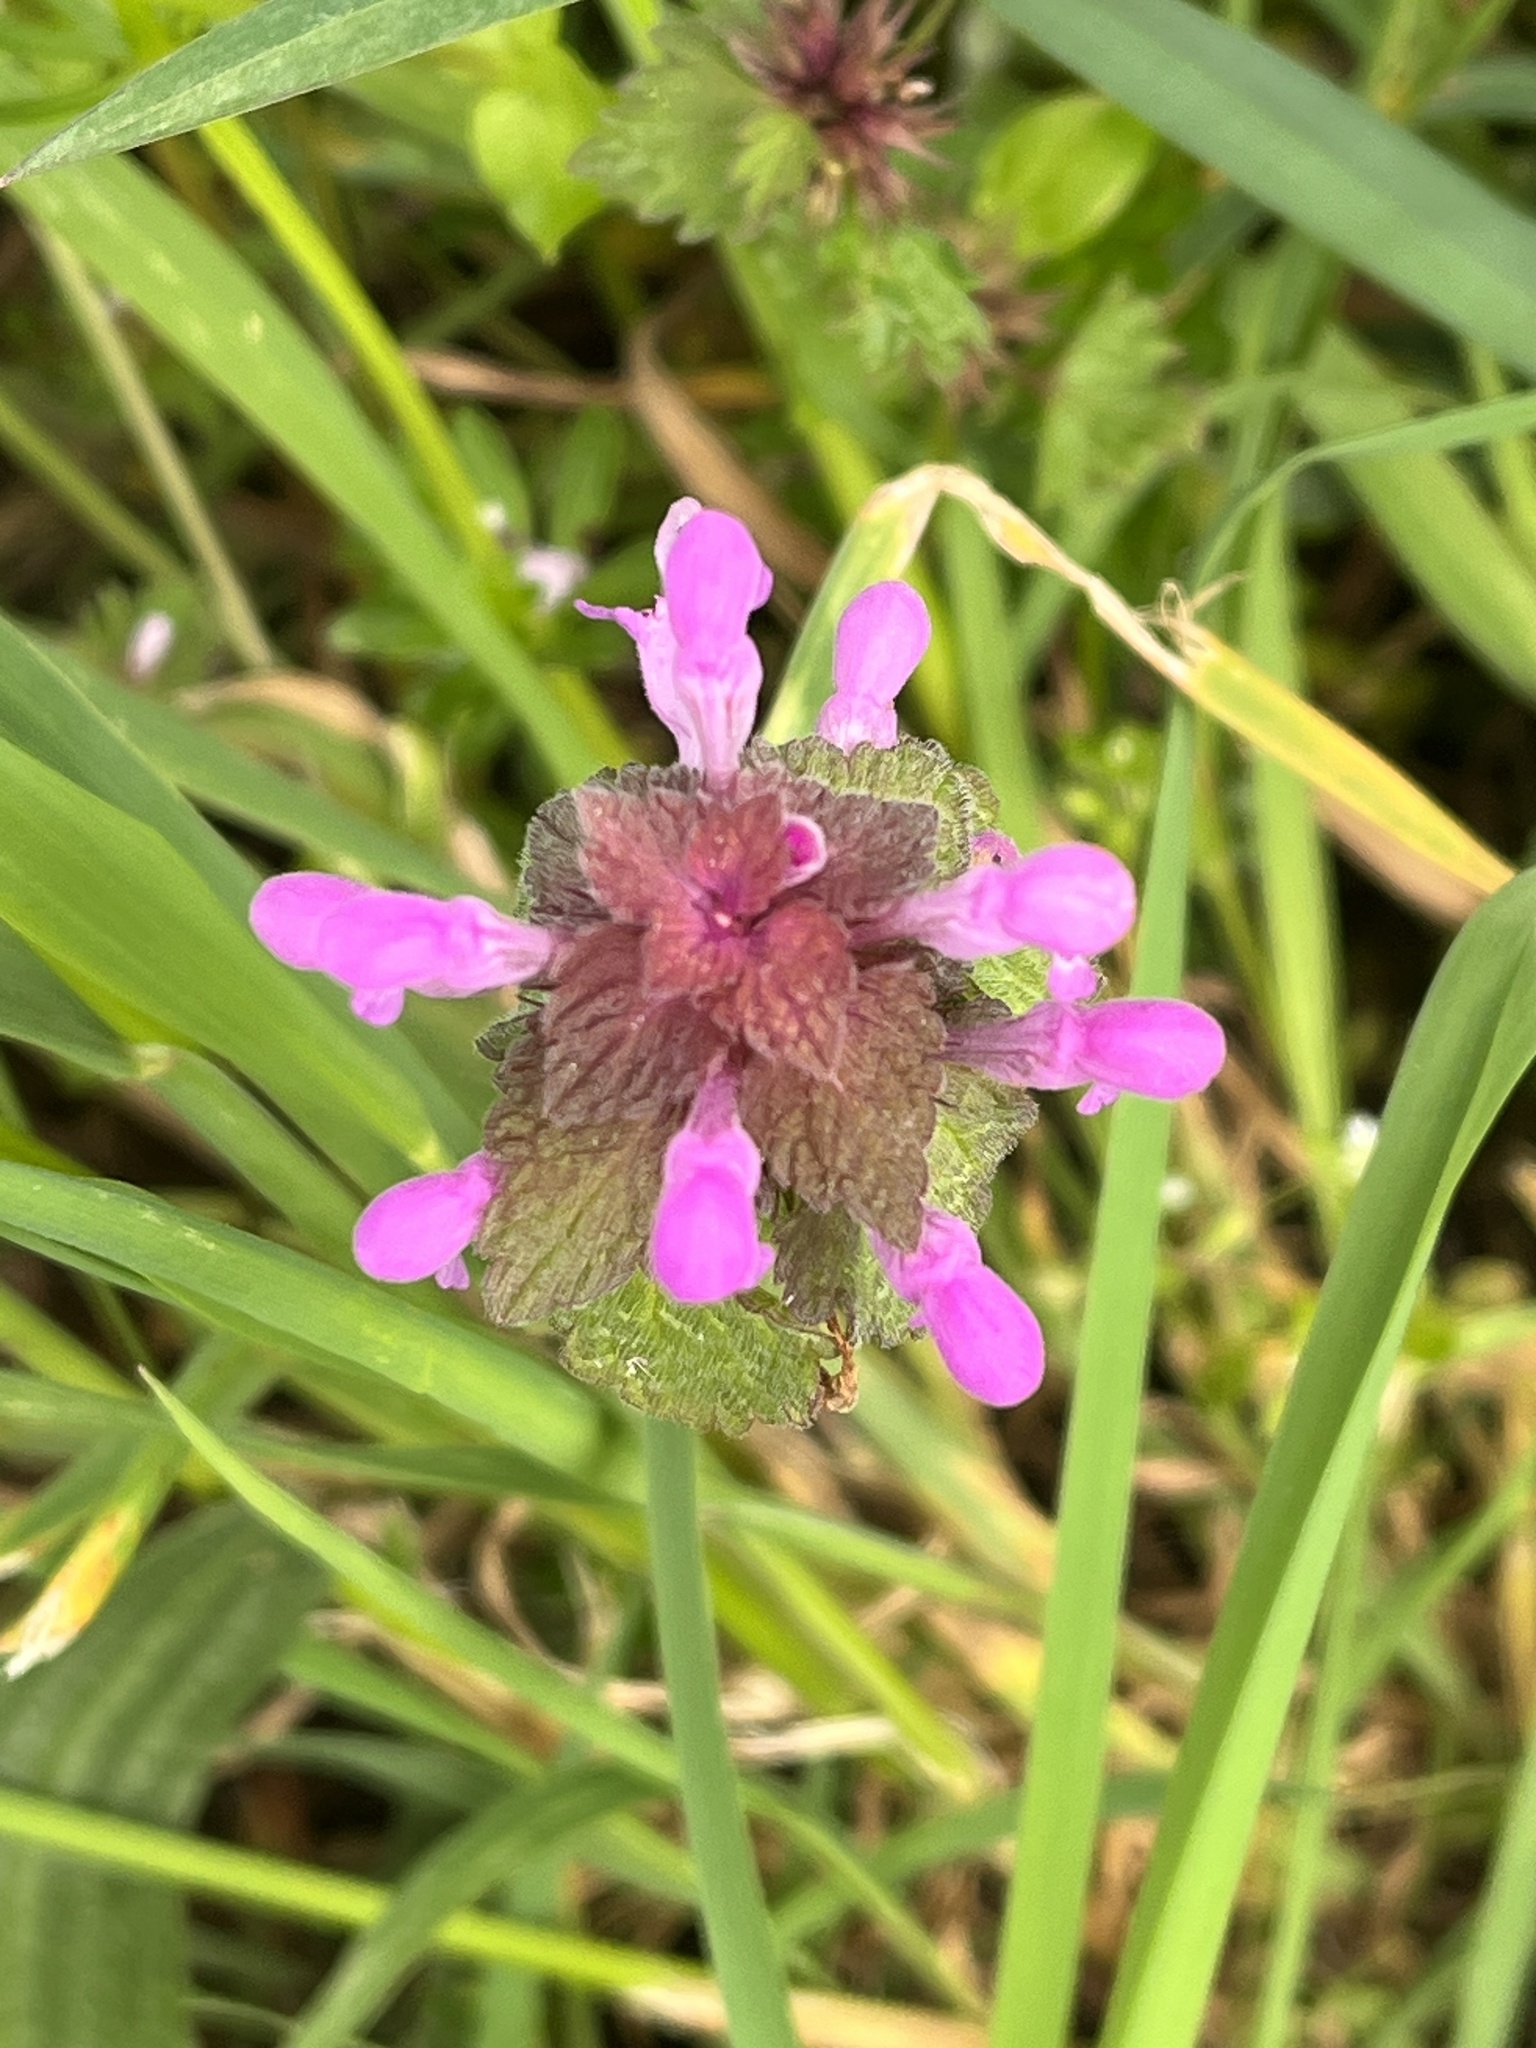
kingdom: Plantae
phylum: Tracheophyta
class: Magnoliopsida
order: Lamiales
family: Lamiaceae
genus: Lamium
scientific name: Lamium purpureum
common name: Red dead-nettle
